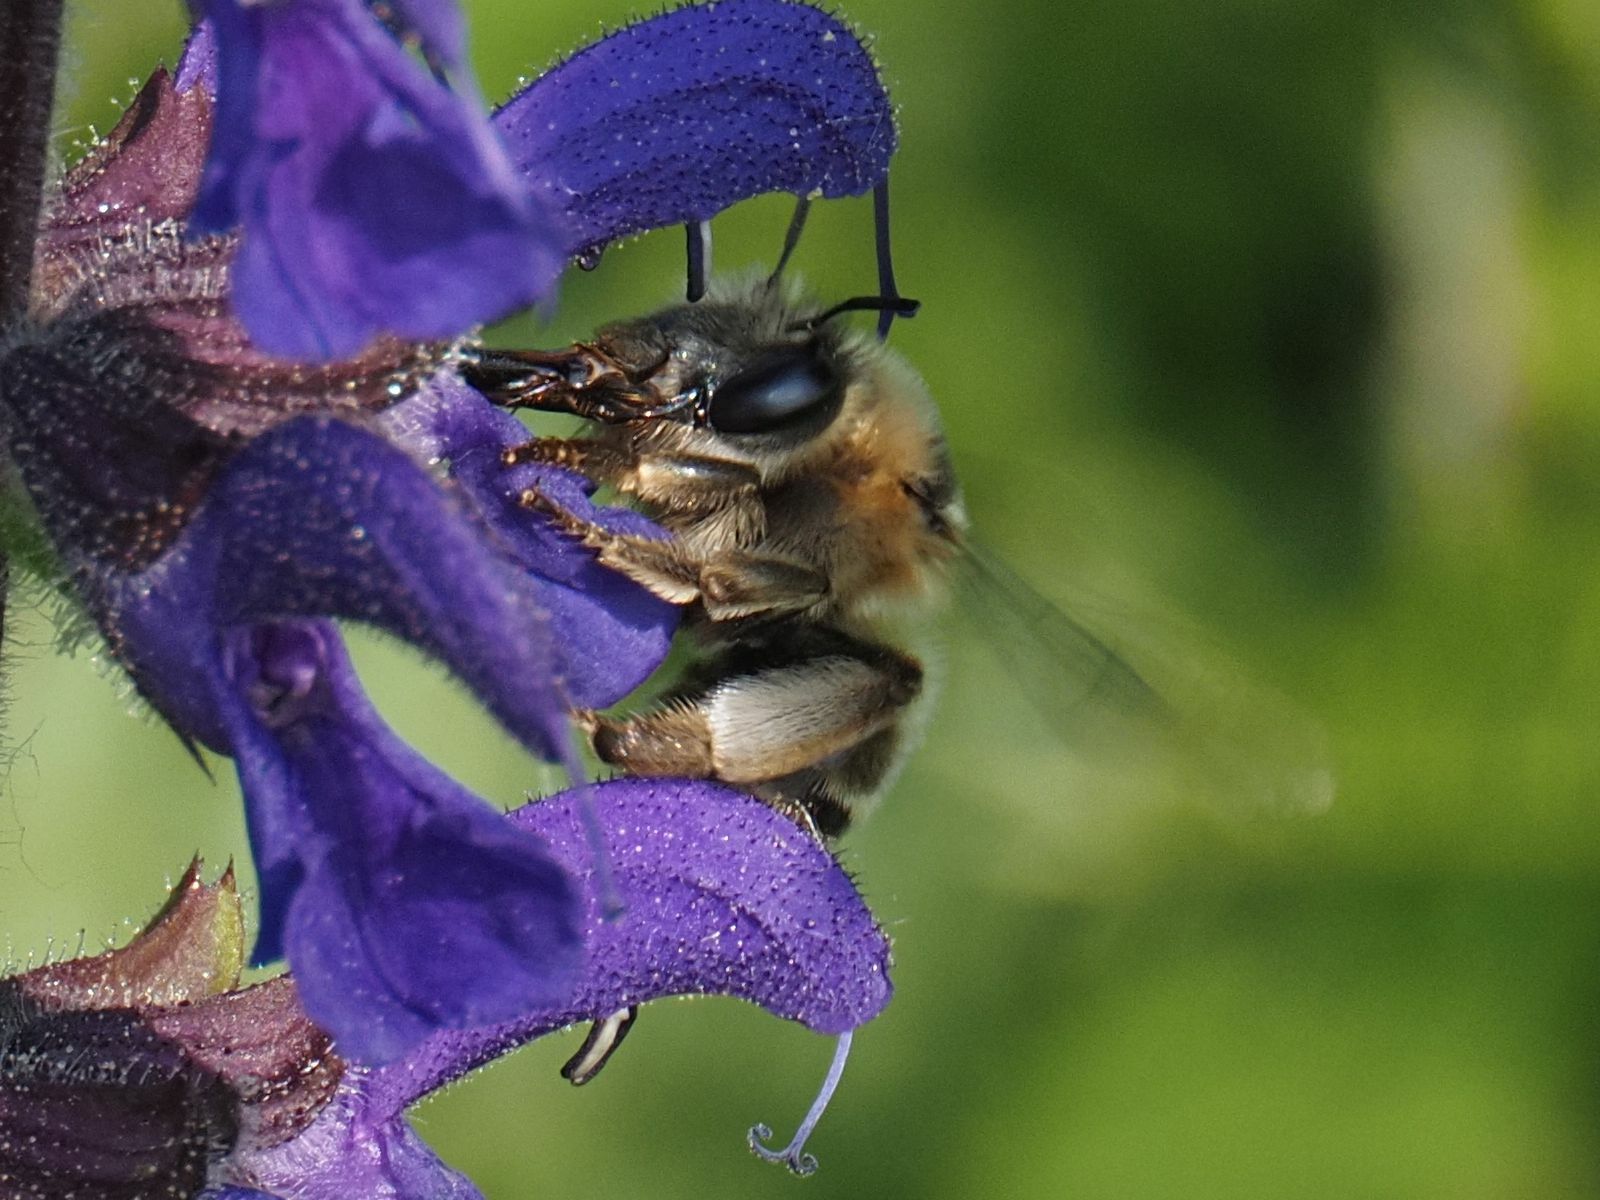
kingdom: Animalia
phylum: Arthropoda
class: Insecta
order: Hymenoptera
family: Apidae
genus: Anthophora
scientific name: Anthophora aestivalis
